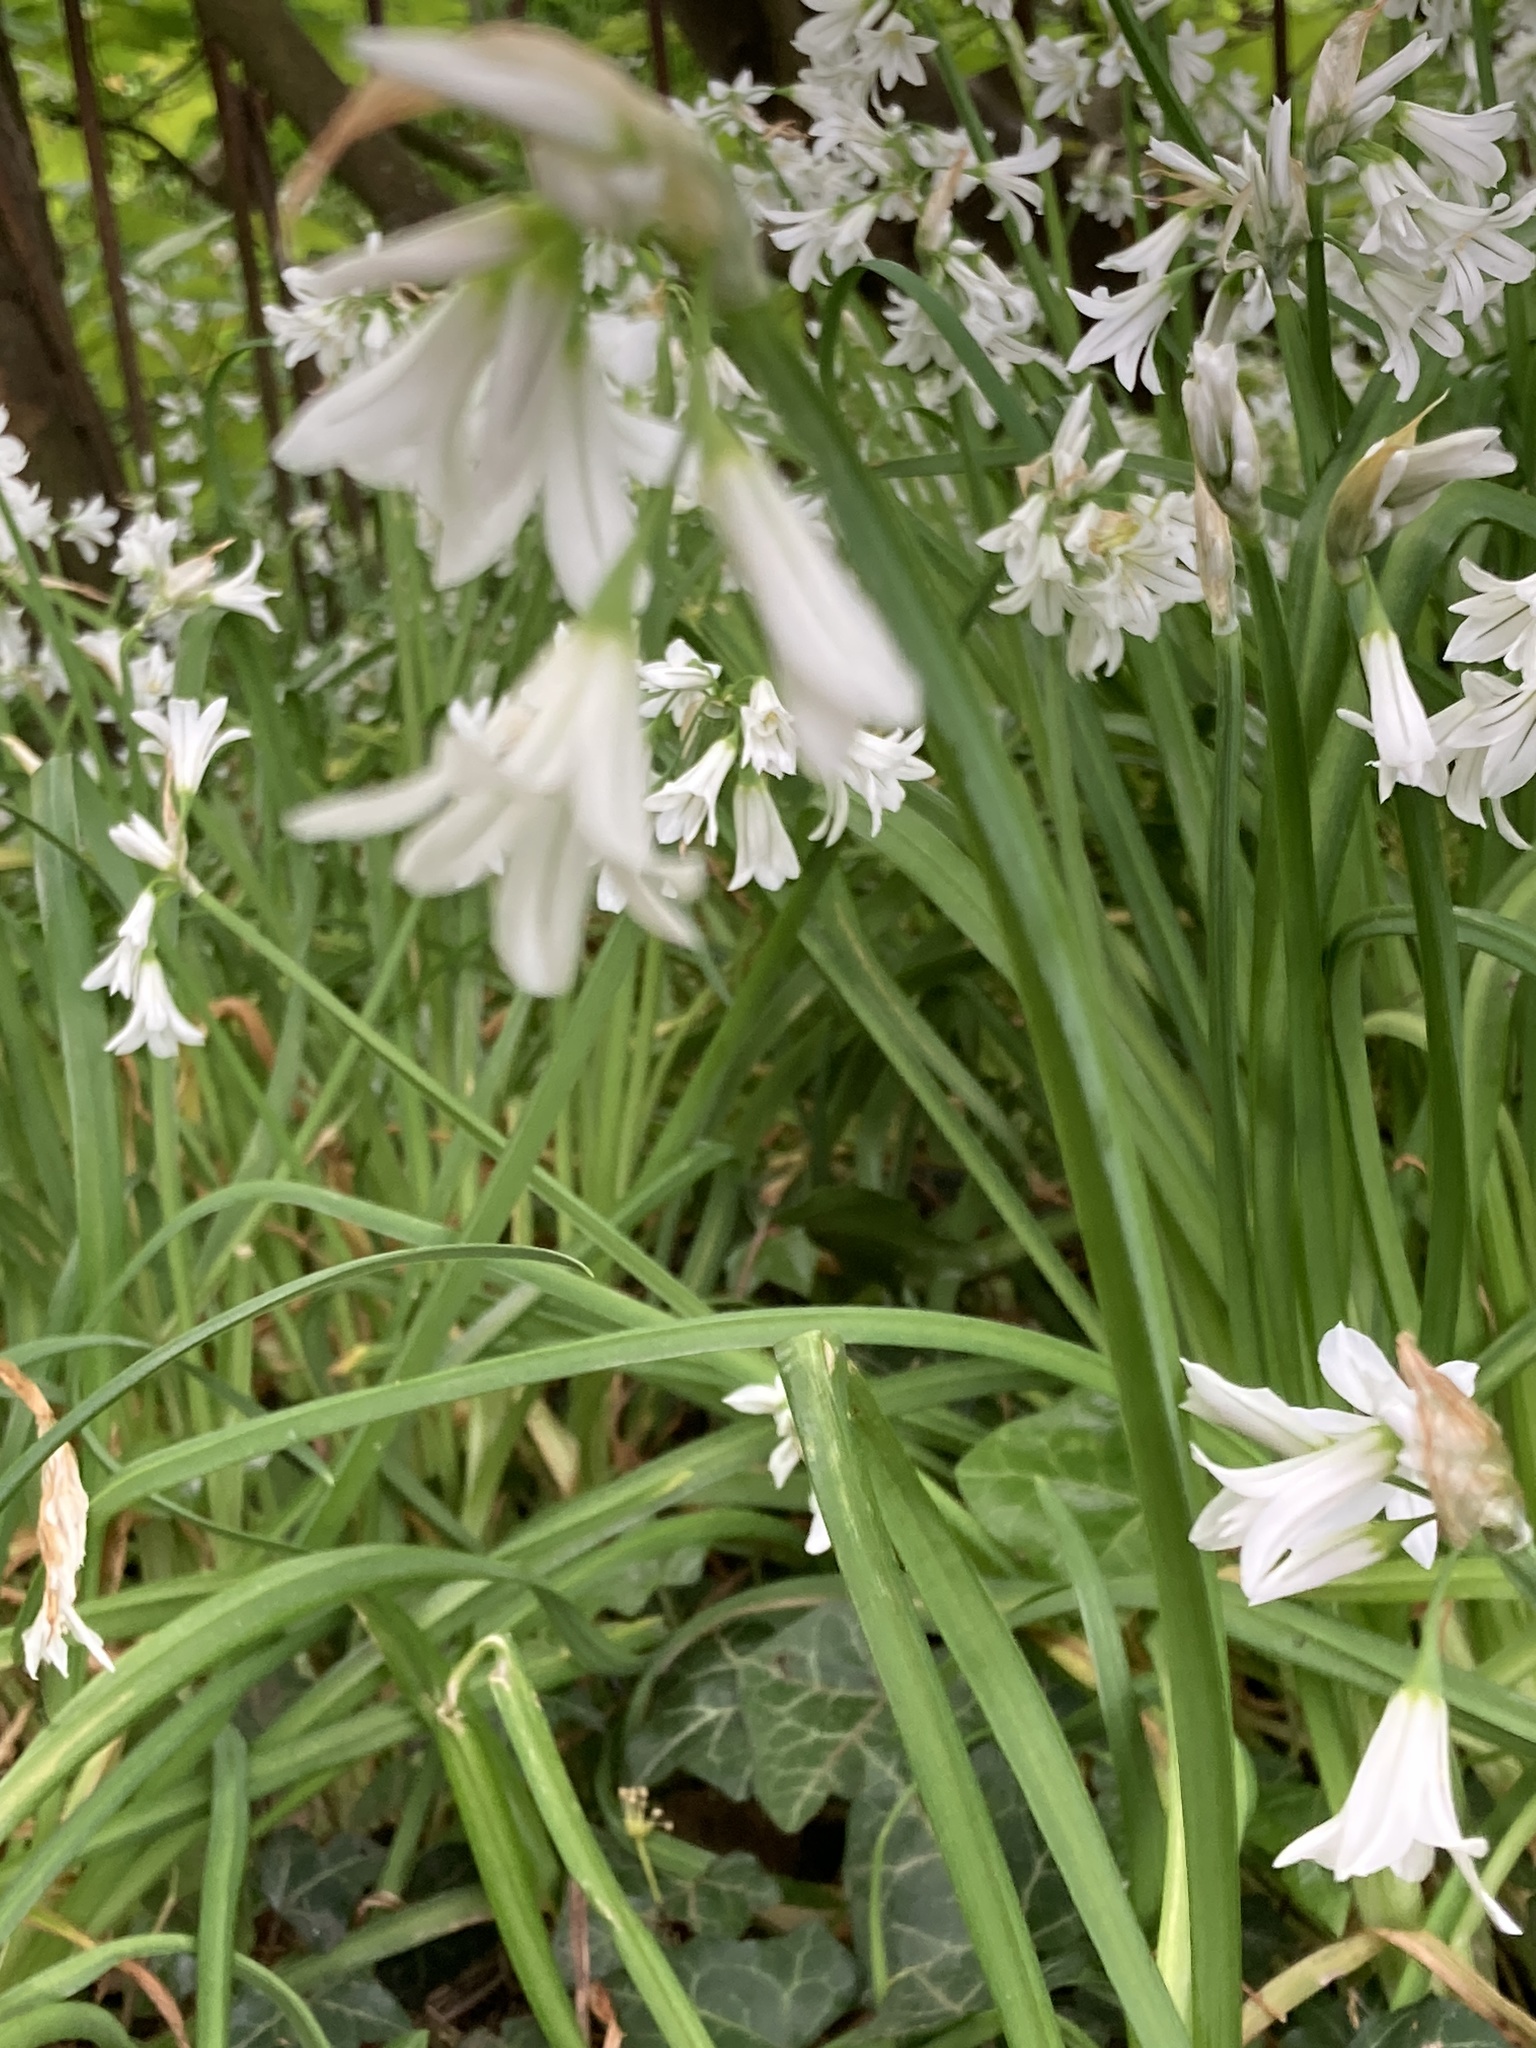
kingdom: Plantae
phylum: Tracheophyta
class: Liliopsida
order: Asparagales
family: Amaryllidaceae
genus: Allium
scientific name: Allium triquetrum
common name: Three-cornered garlic
